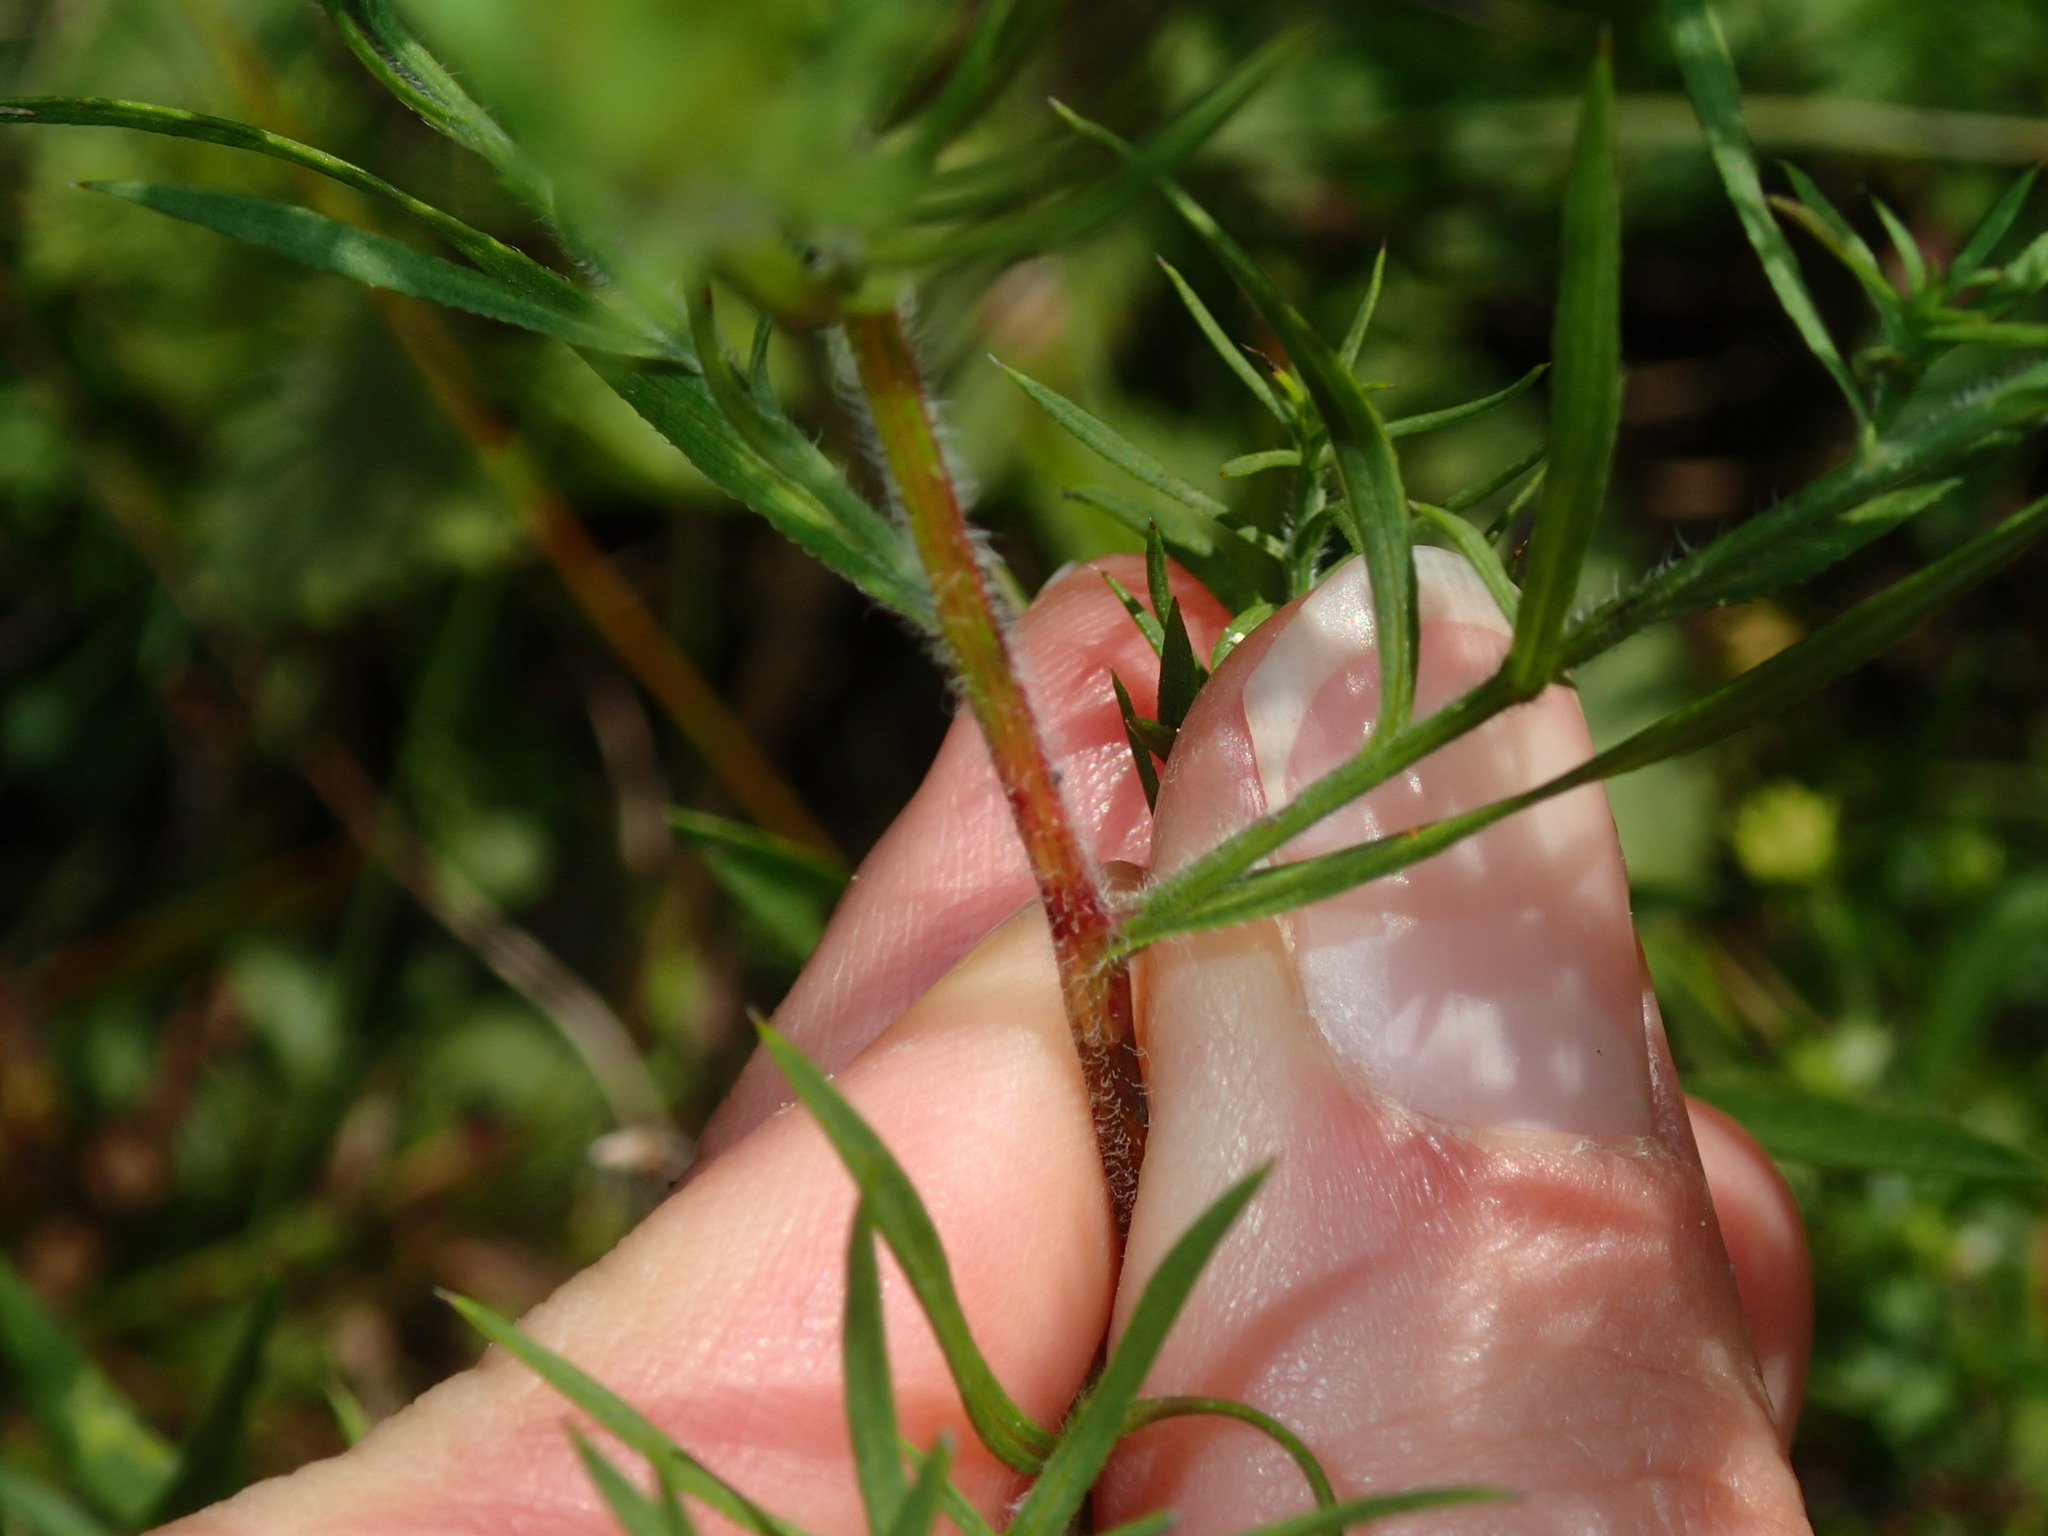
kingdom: Plantae
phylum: Tracheophyta
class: Magnoliopsida
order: Asterales
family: Asteraceae
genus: Symphyotrichum
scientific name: Symphyotrichum pilosum
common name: Awl aster
